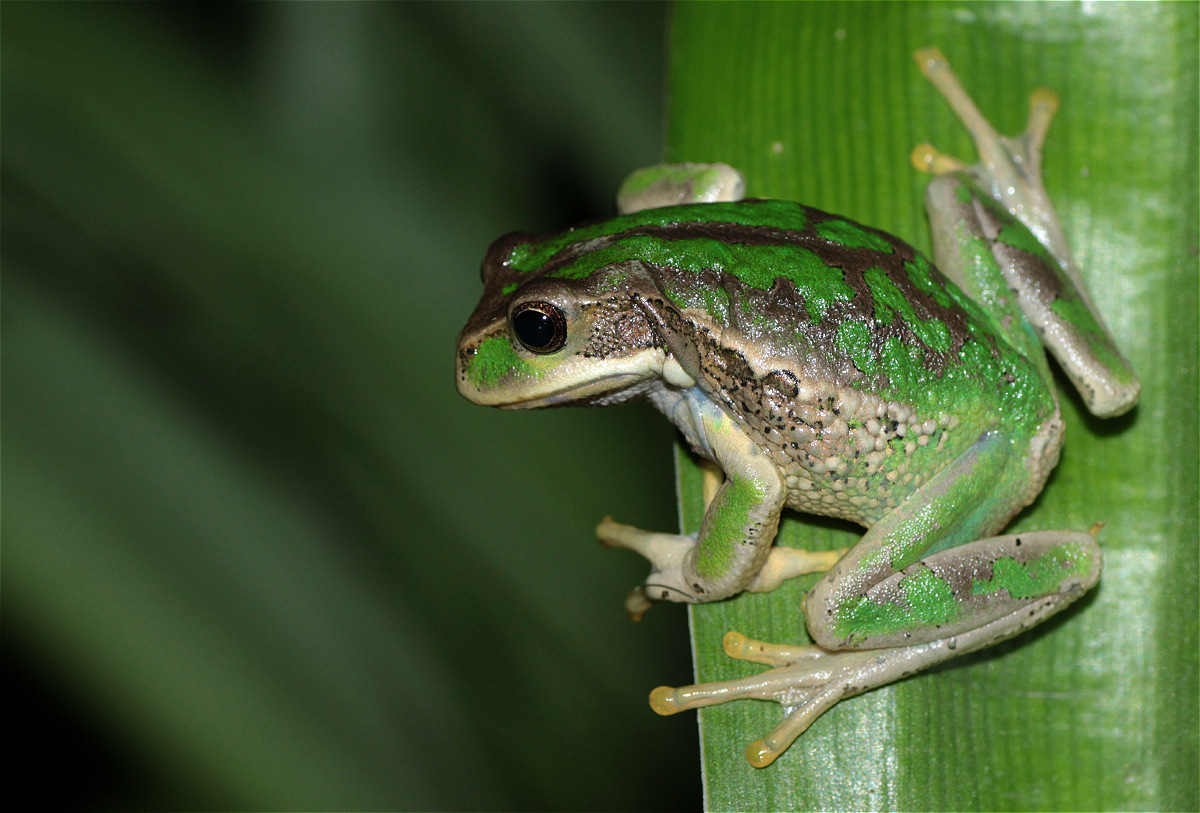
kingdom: Animalia
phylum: Chordata
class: Amphibia
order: Anura
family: Hemiphractidae
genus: Gastrotheca
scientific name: Gastrotheca cuencana
